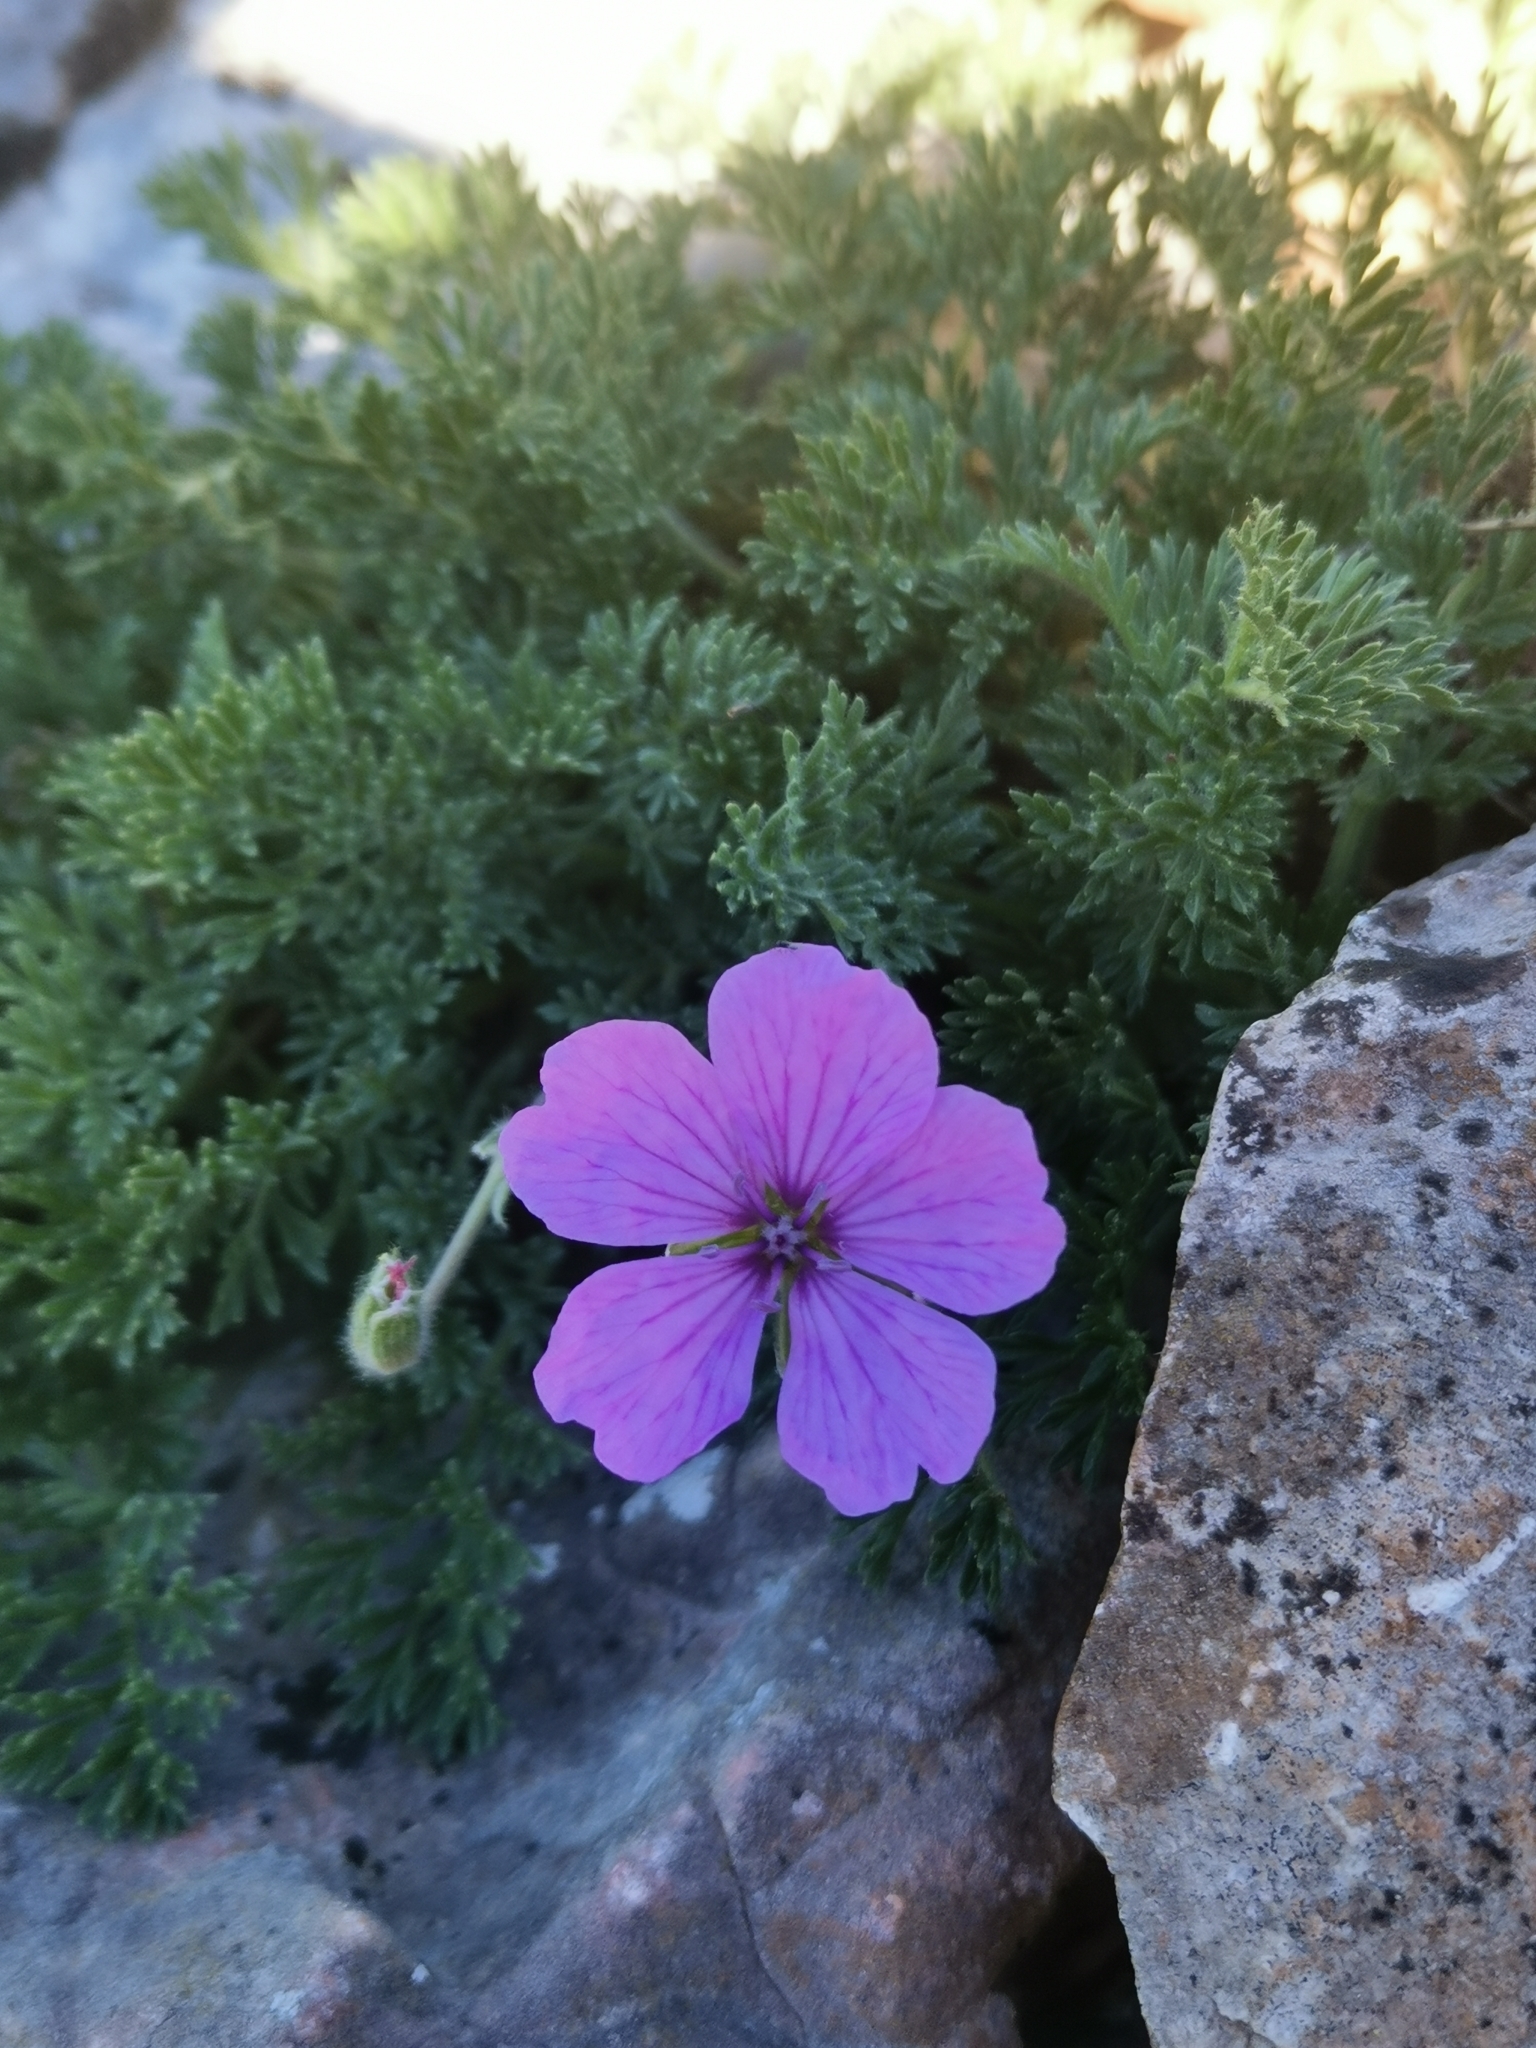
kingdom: Plantae
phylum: Tracheophyta
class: Magnoliopsida
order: Geraniales
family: Geraniaceae
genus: Erodium
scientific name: Erodium foetidum
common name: Rock stork's-bill
